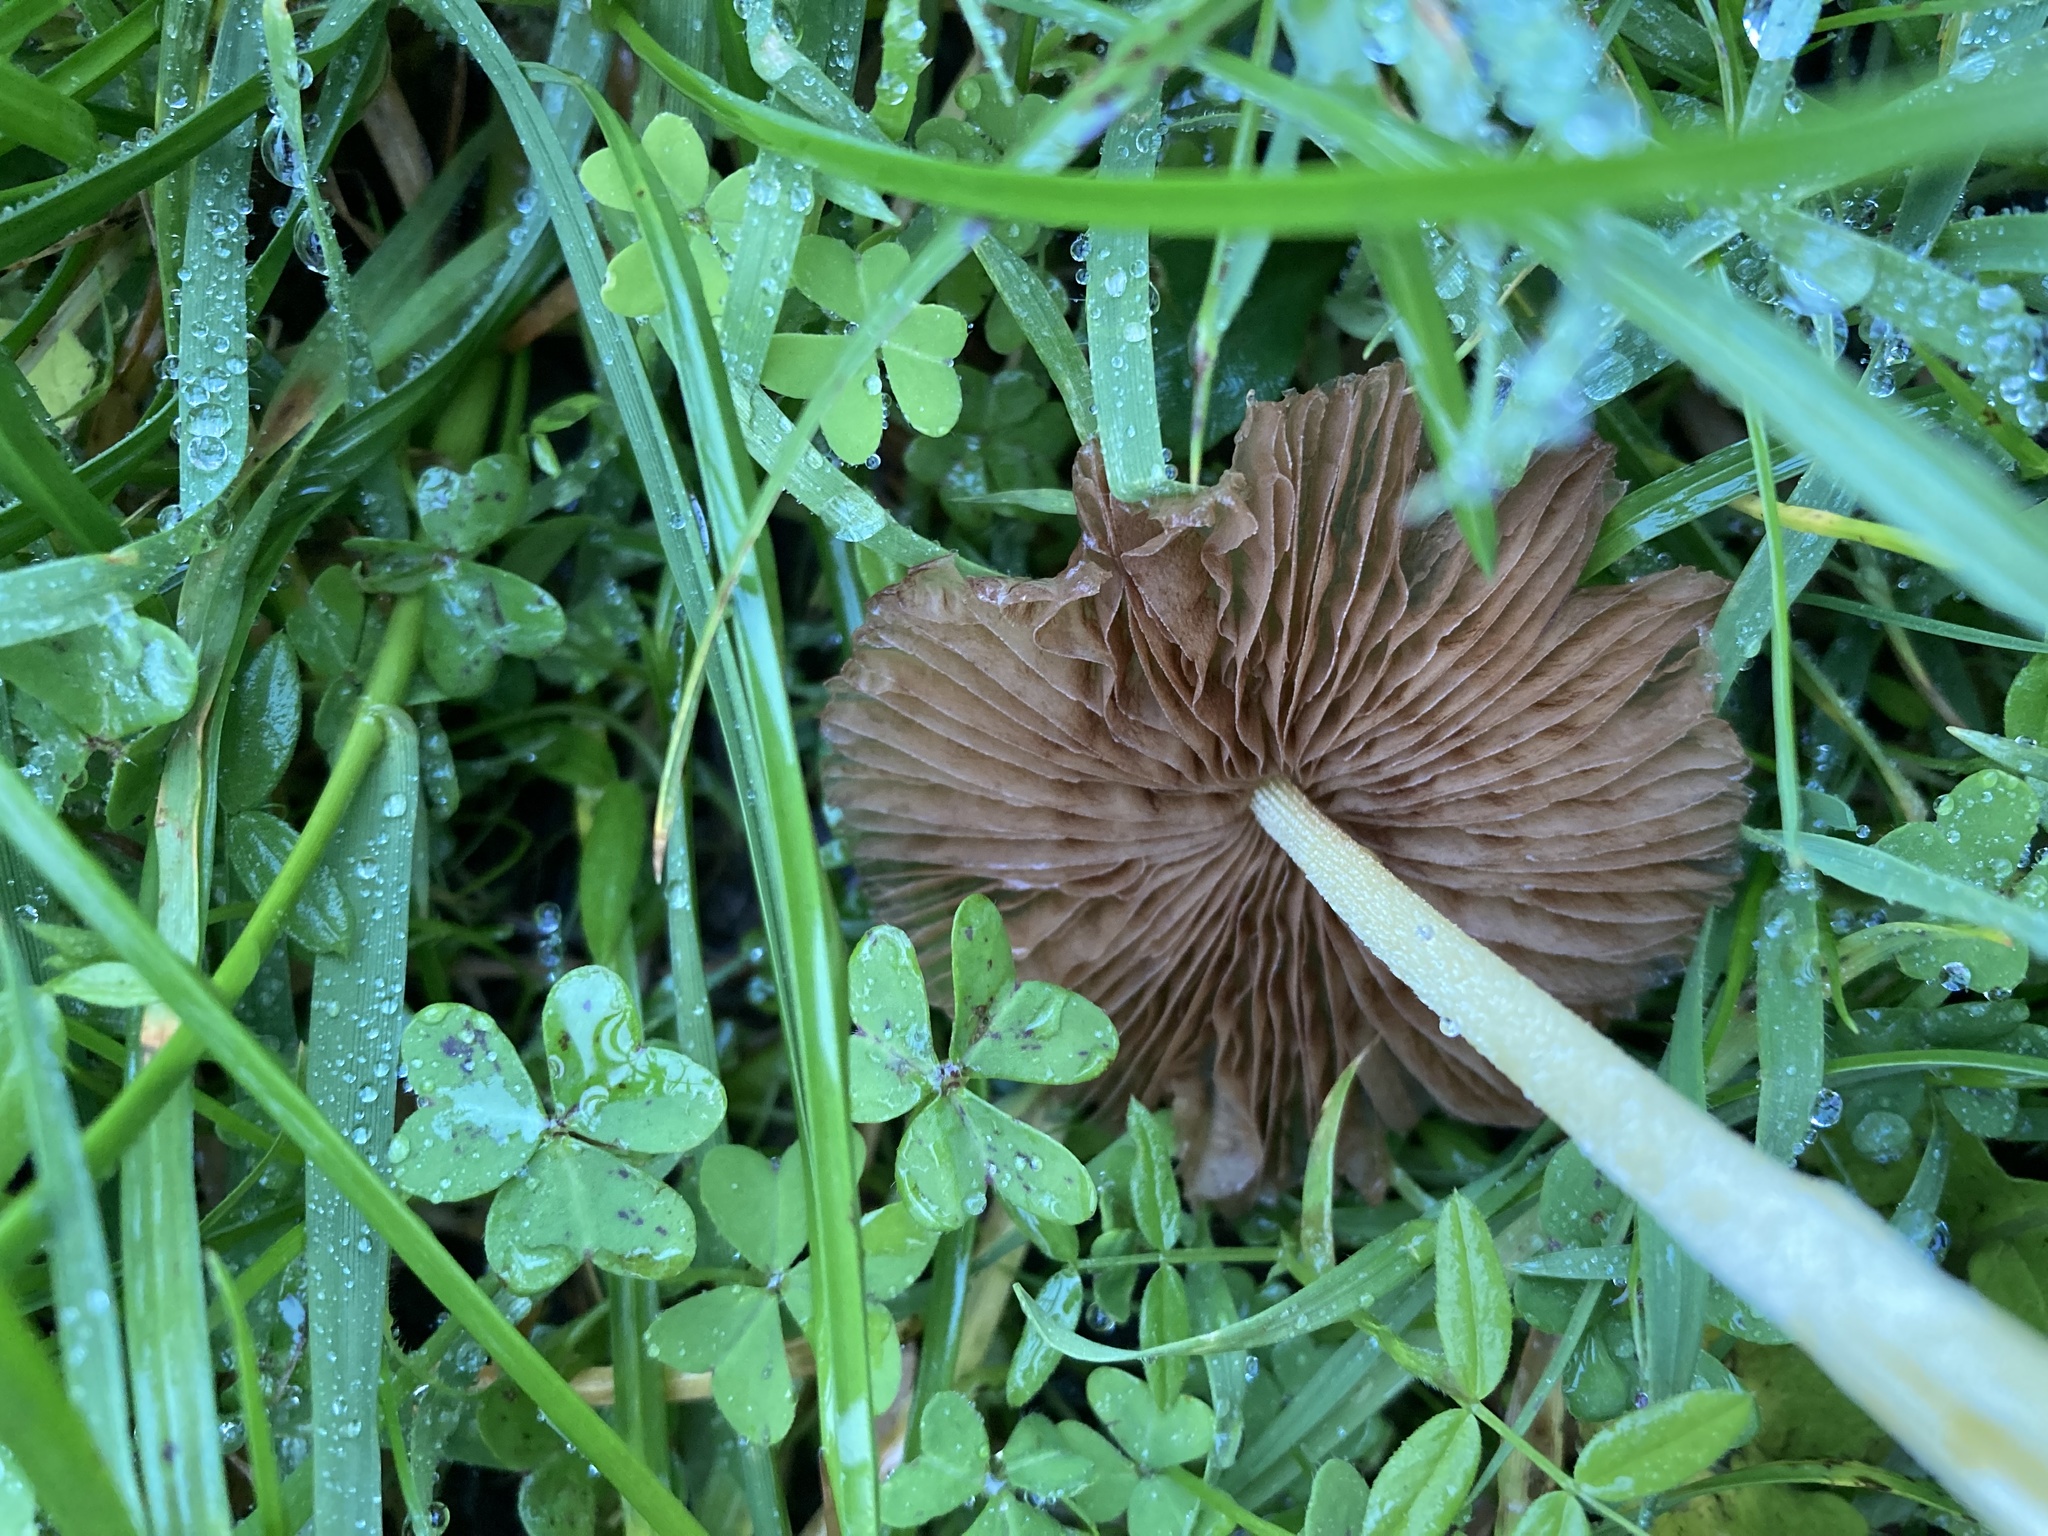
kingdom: Fungi
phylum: Basidiomycota
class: Agaricomycetes
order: Agaricales
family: Bolbitiaceae
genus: Bolbitius
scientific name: Bolbitius titubans
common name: Yellow fieldcap
